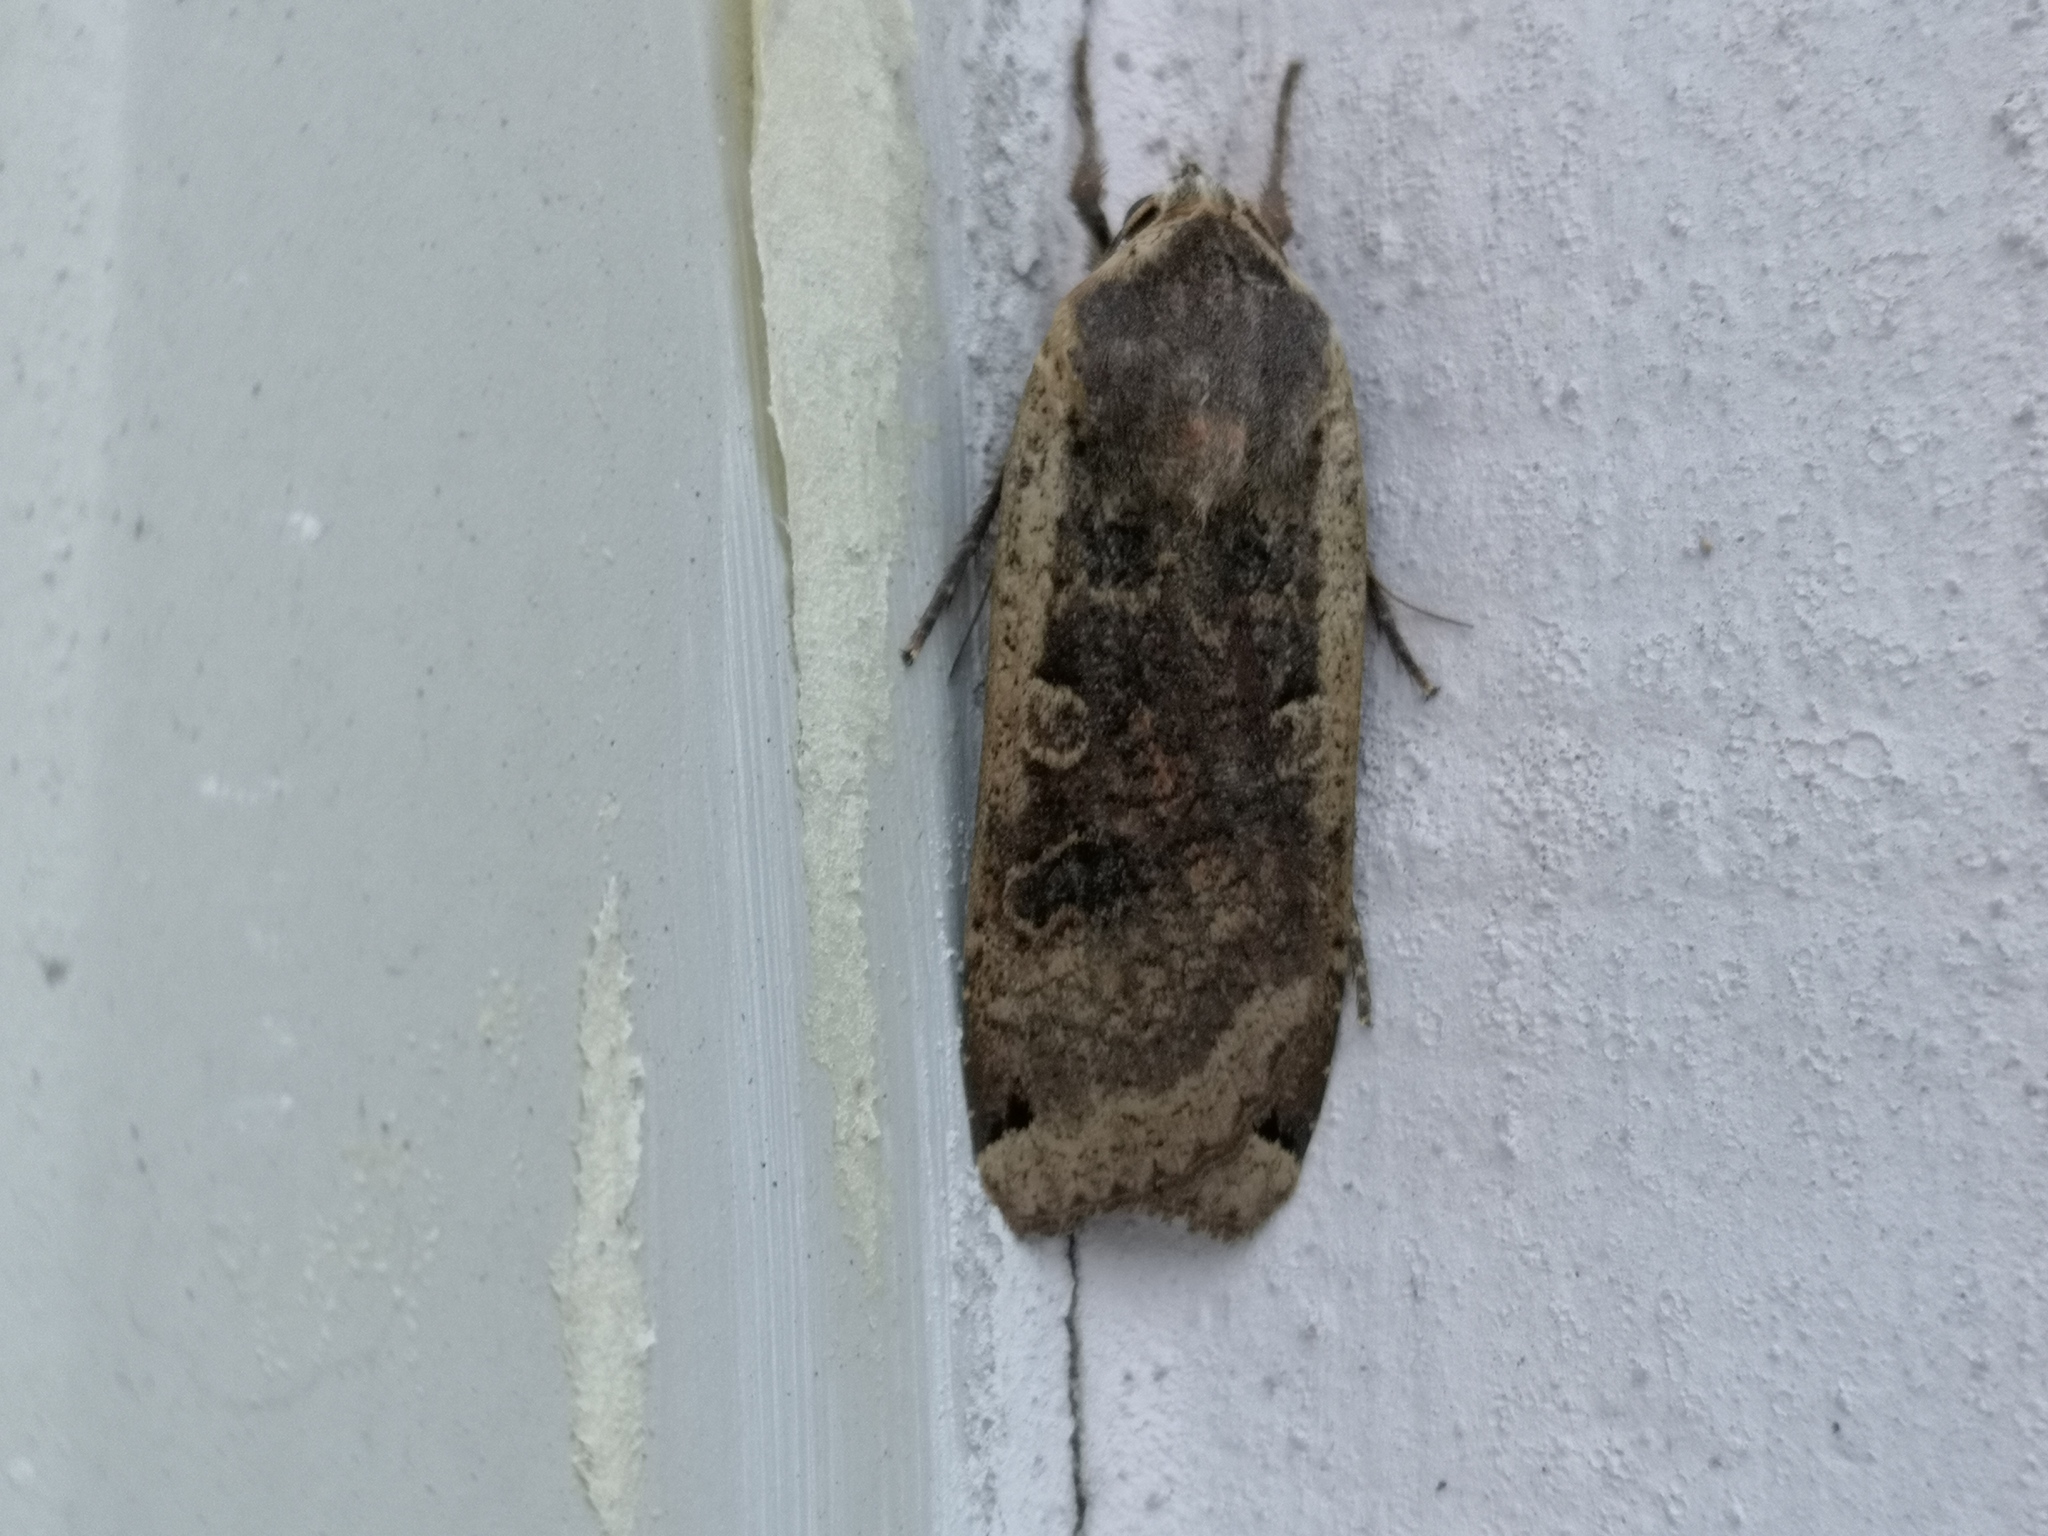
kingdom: Animalia
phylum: Arthropoda
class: Insecta
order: Lepidoptera
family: Noctuidae
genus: Noctua
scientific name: Noctua pronuba
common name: Large yellow underwing
